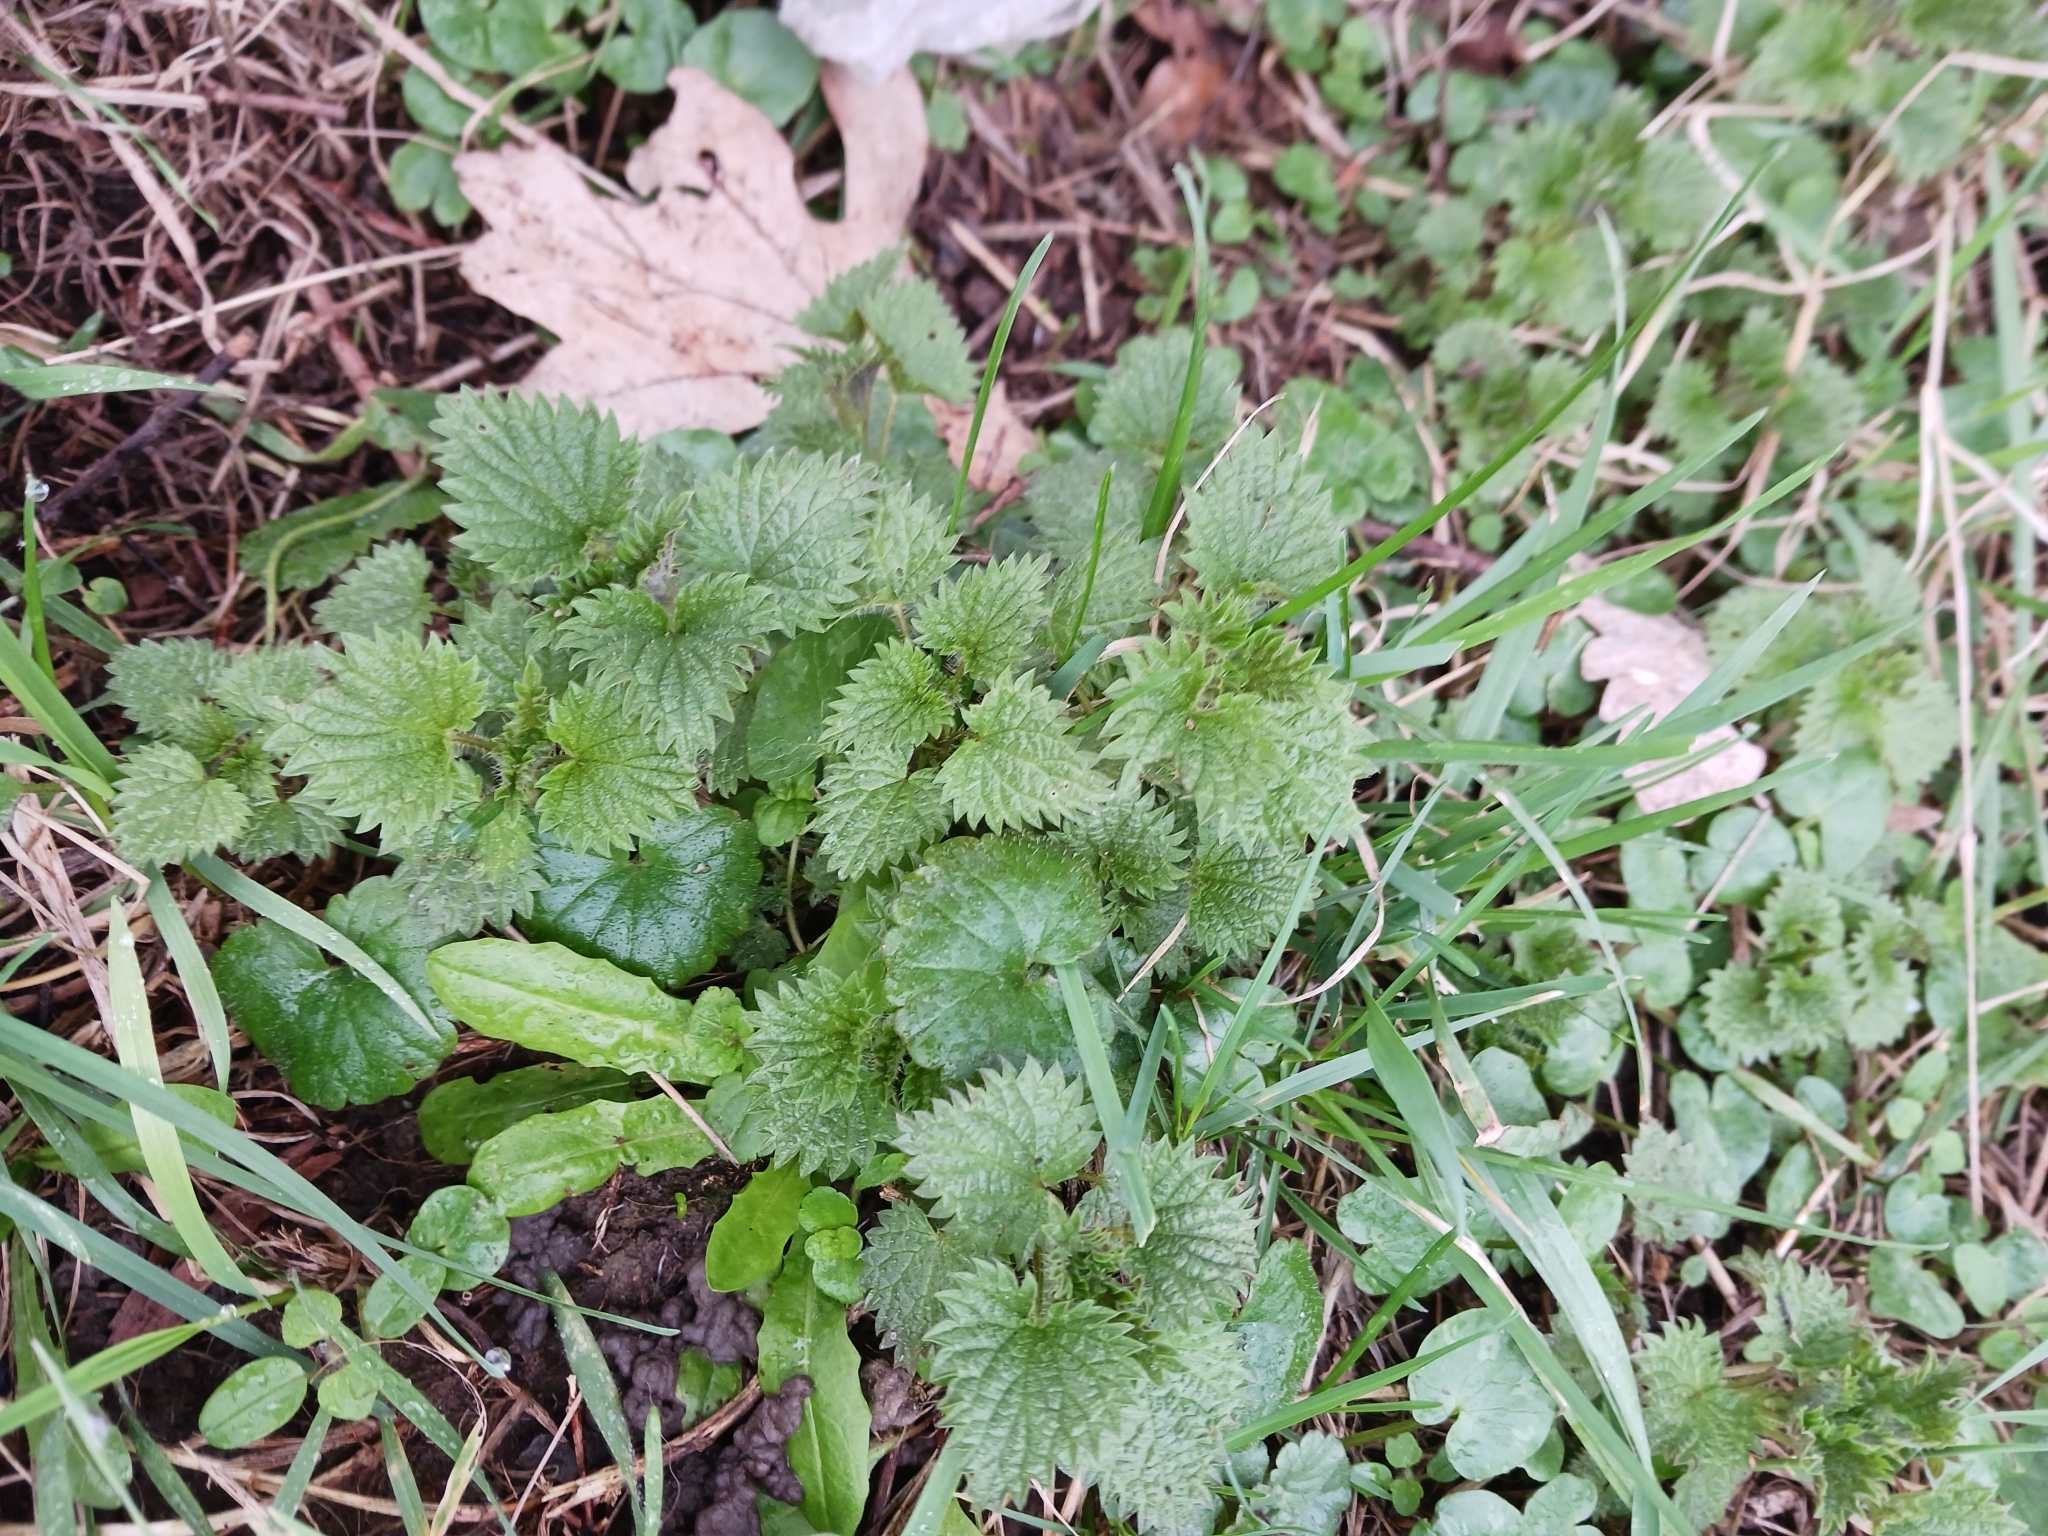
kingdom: Plantae
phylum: Tracheophyta
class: Magnoliopsida
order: Rosales
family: Urticaceae
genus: Urtica
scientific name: Urtica dioica
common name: Common nettle
